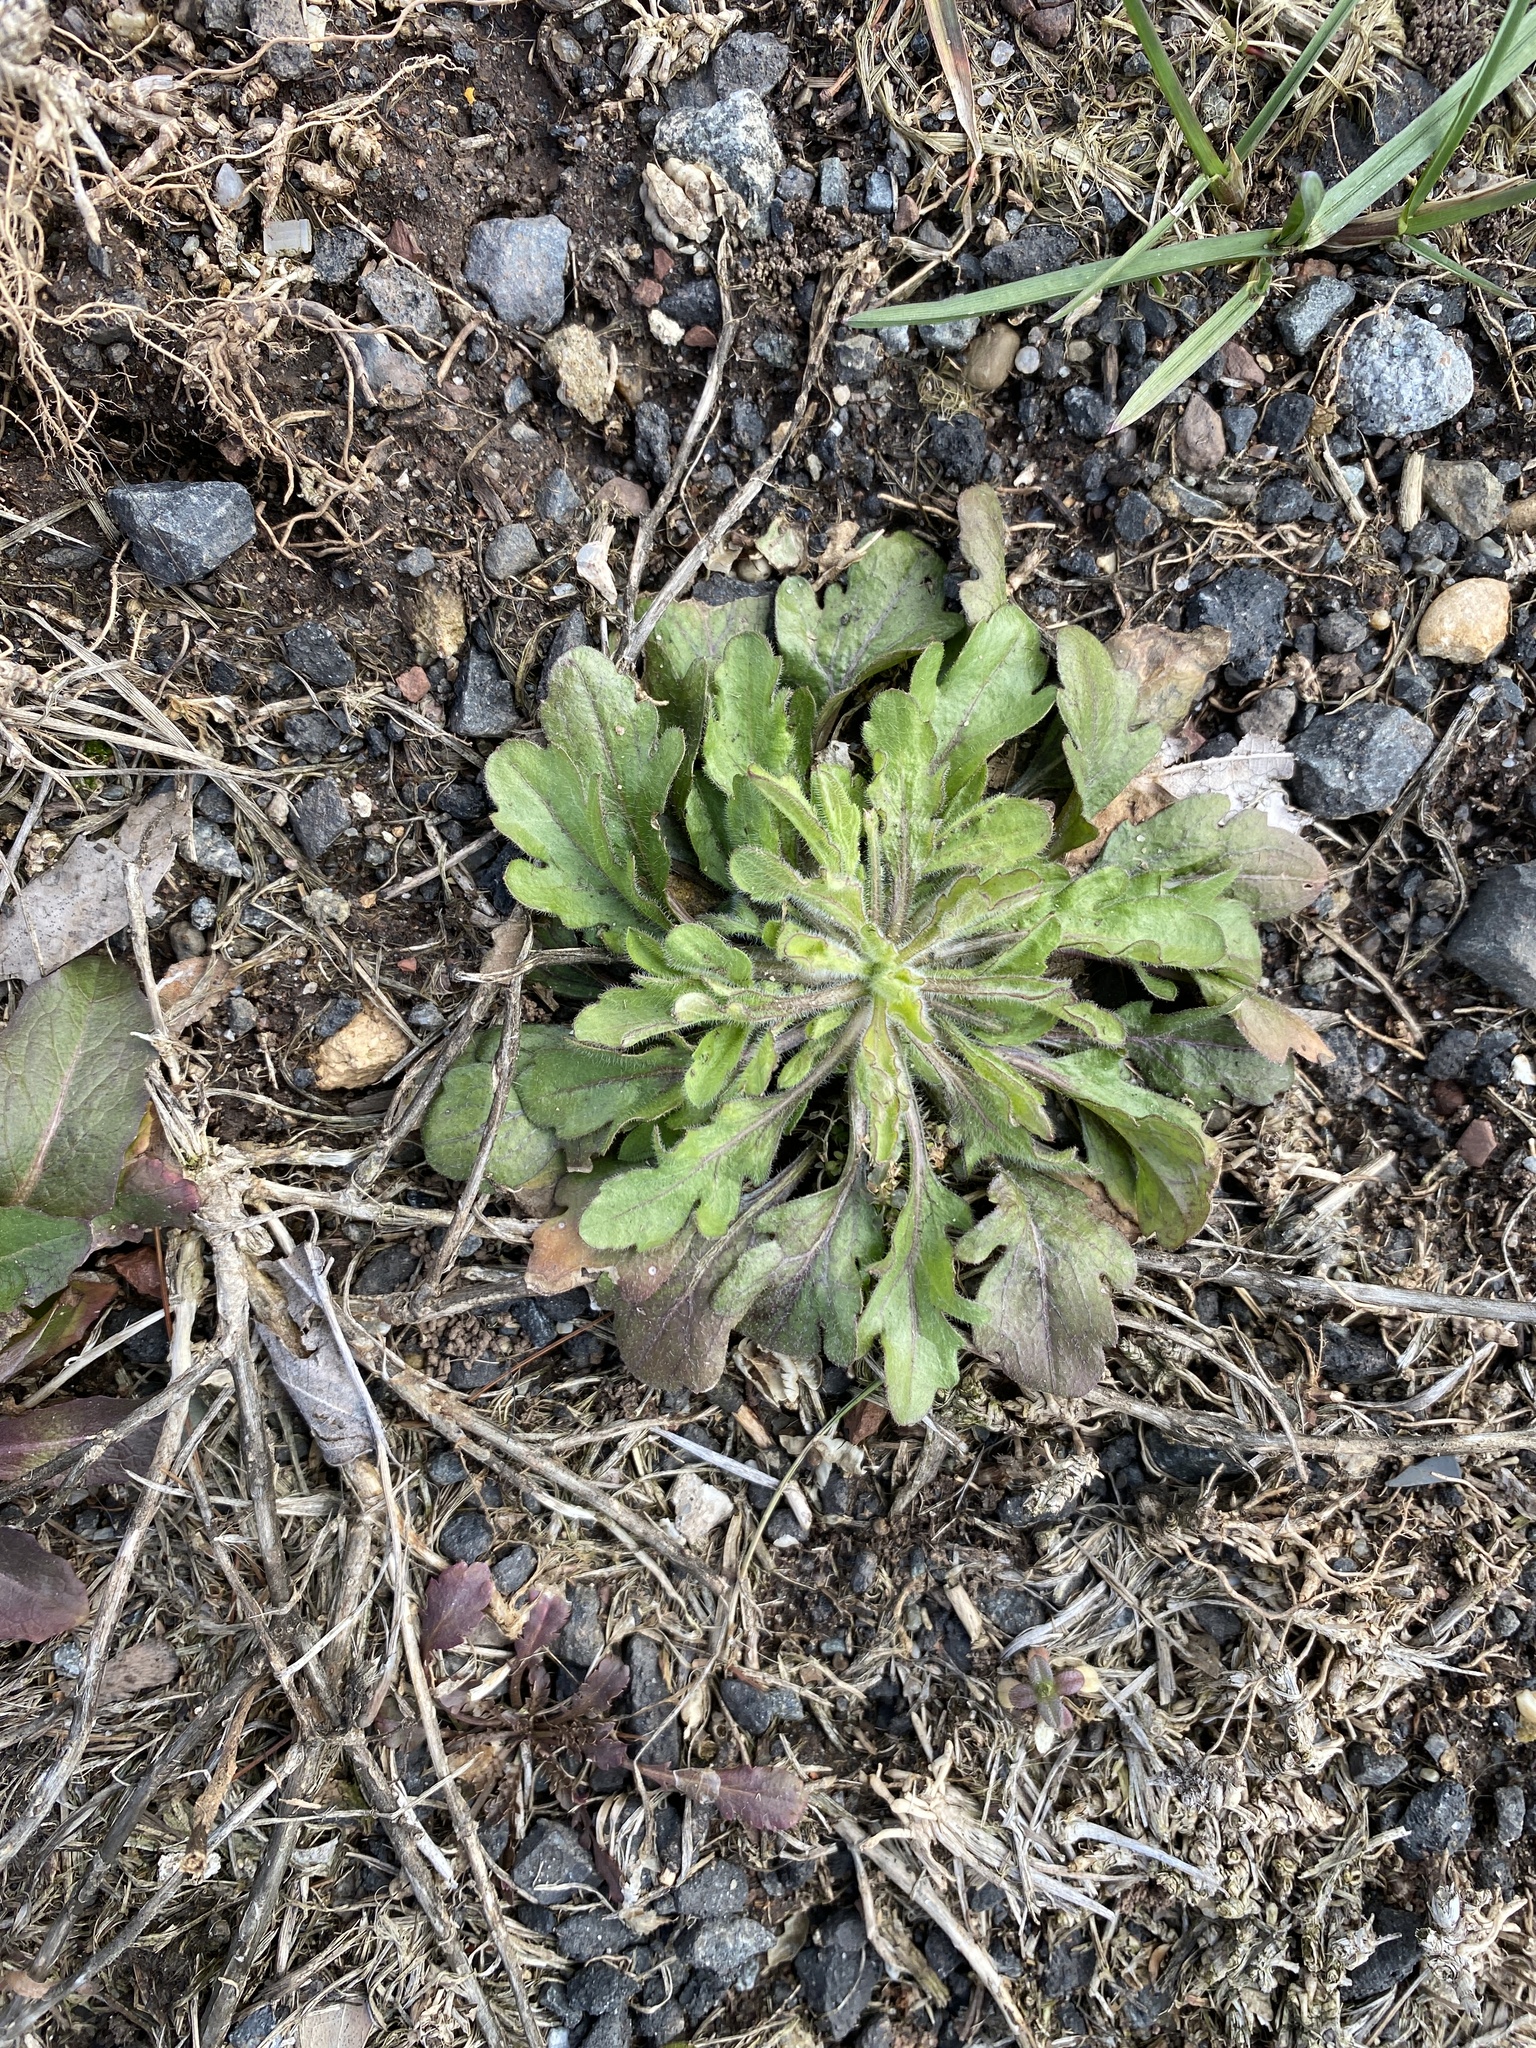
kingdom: Plantae
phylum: Tracheophyta
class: Magnoliopsida
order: Asterales
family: Asteraceae
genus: Erigeron
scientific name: Erigeron canadensis
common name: Canadian fleabane
